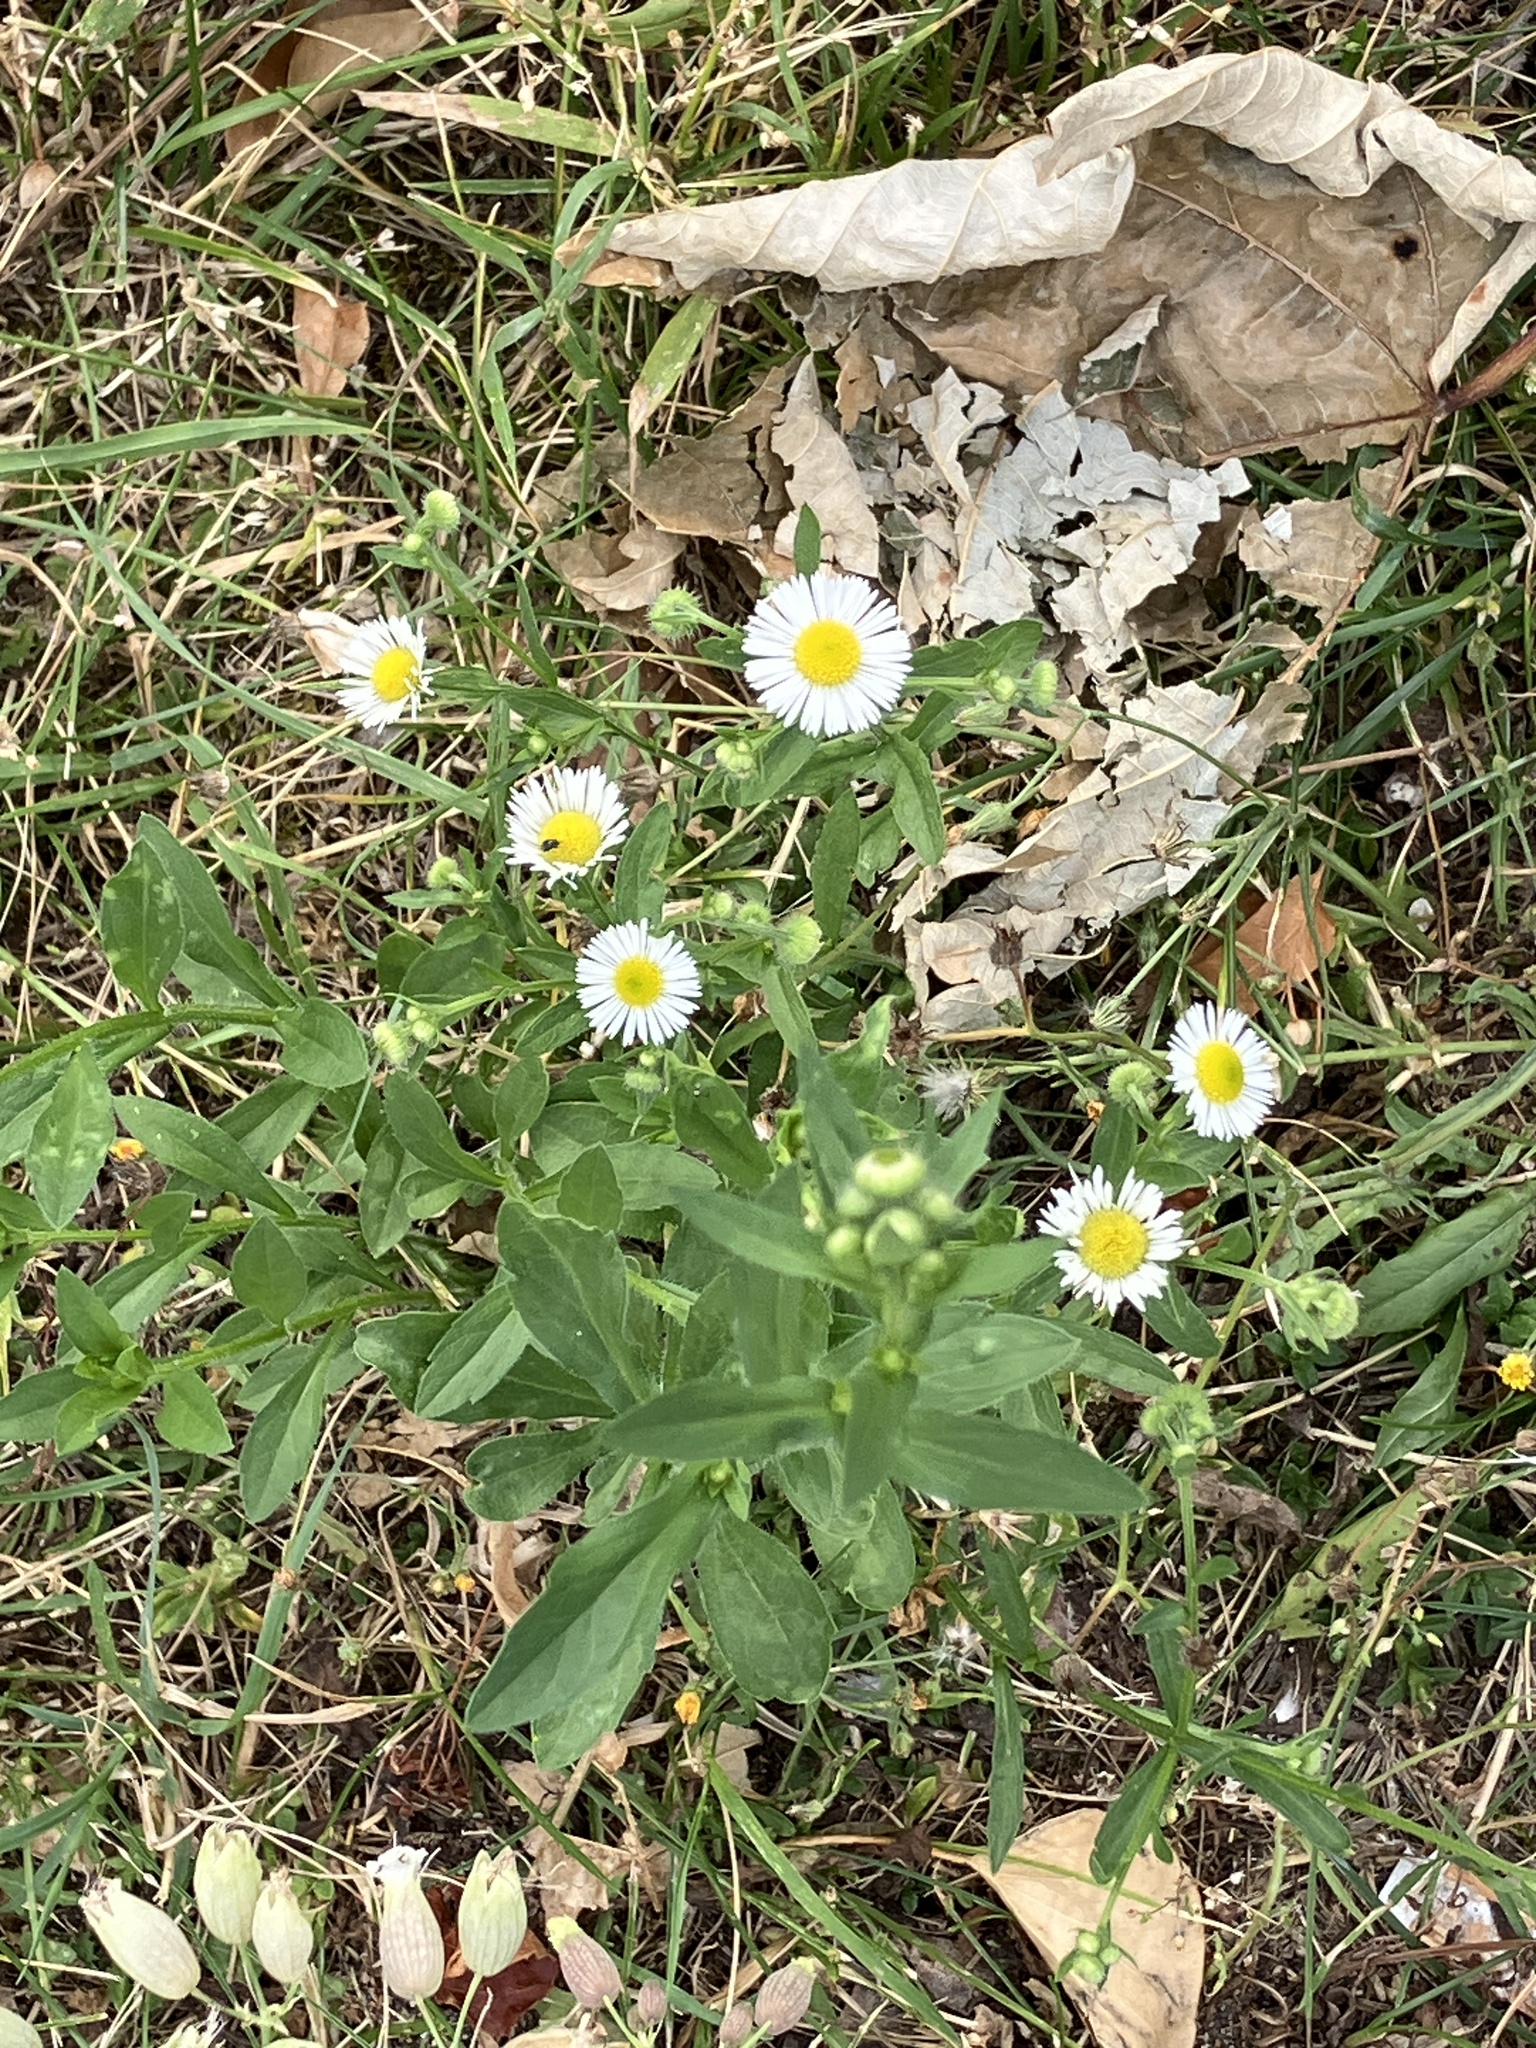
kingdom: Plantae
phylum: Tracheophyta
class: Magnoliopsida
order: Asterales
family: Asteraceae
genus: Erigeron
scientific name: Erigeron annuus
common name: Tall fleabane
